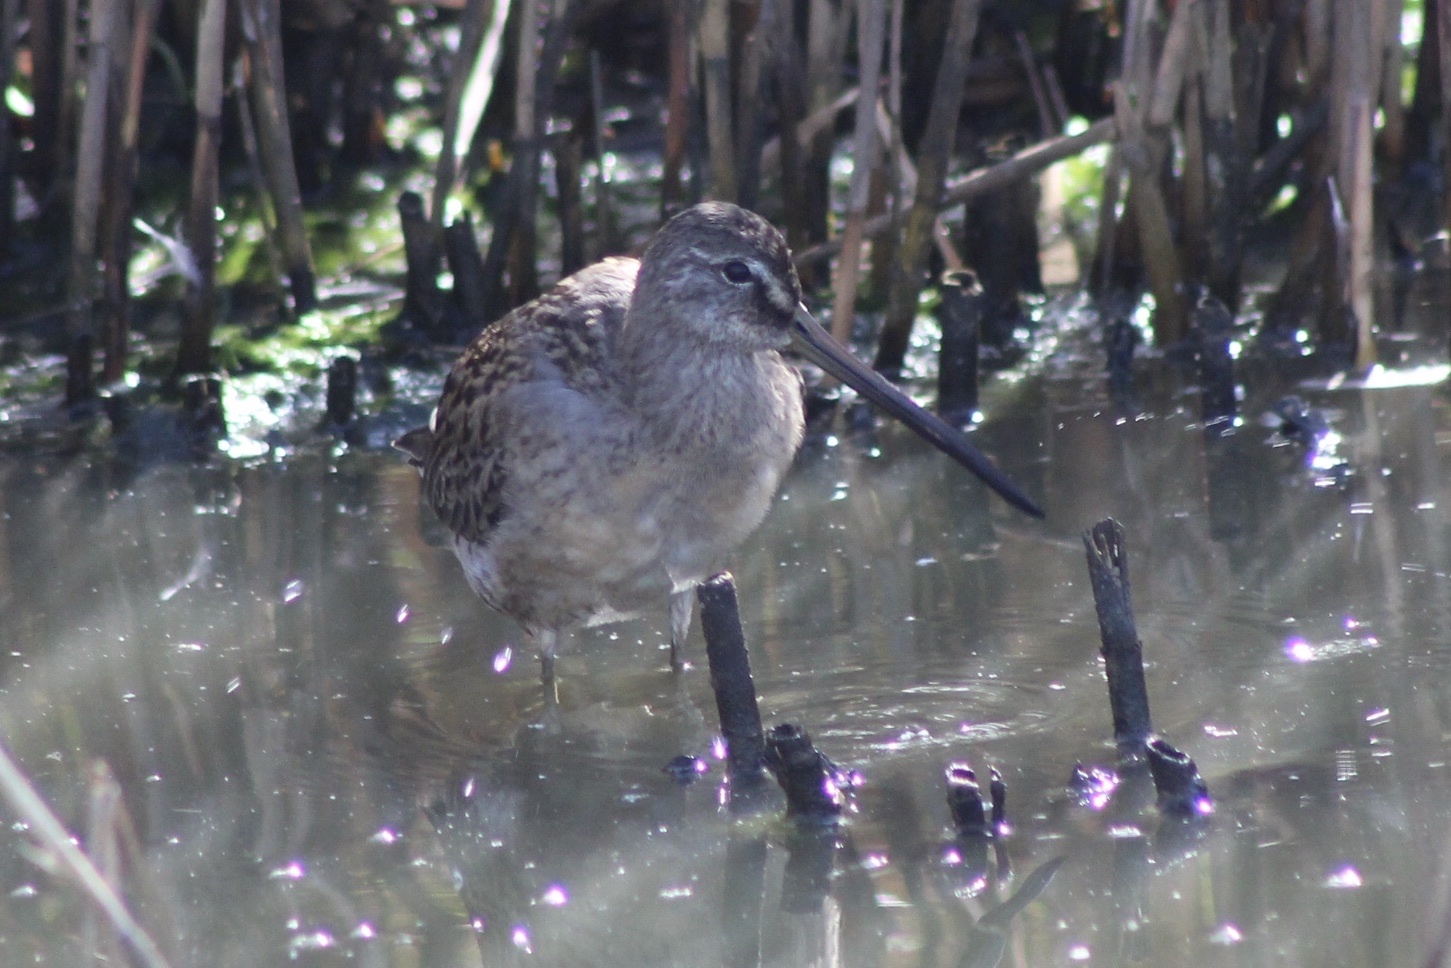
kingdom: Animalia
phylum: Chordata
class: Aves
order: Charadriiformes
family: Scolopacidae
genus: Limnodromus
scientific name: Limnodromus scolopaceus
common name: Long-billed dowitcher
